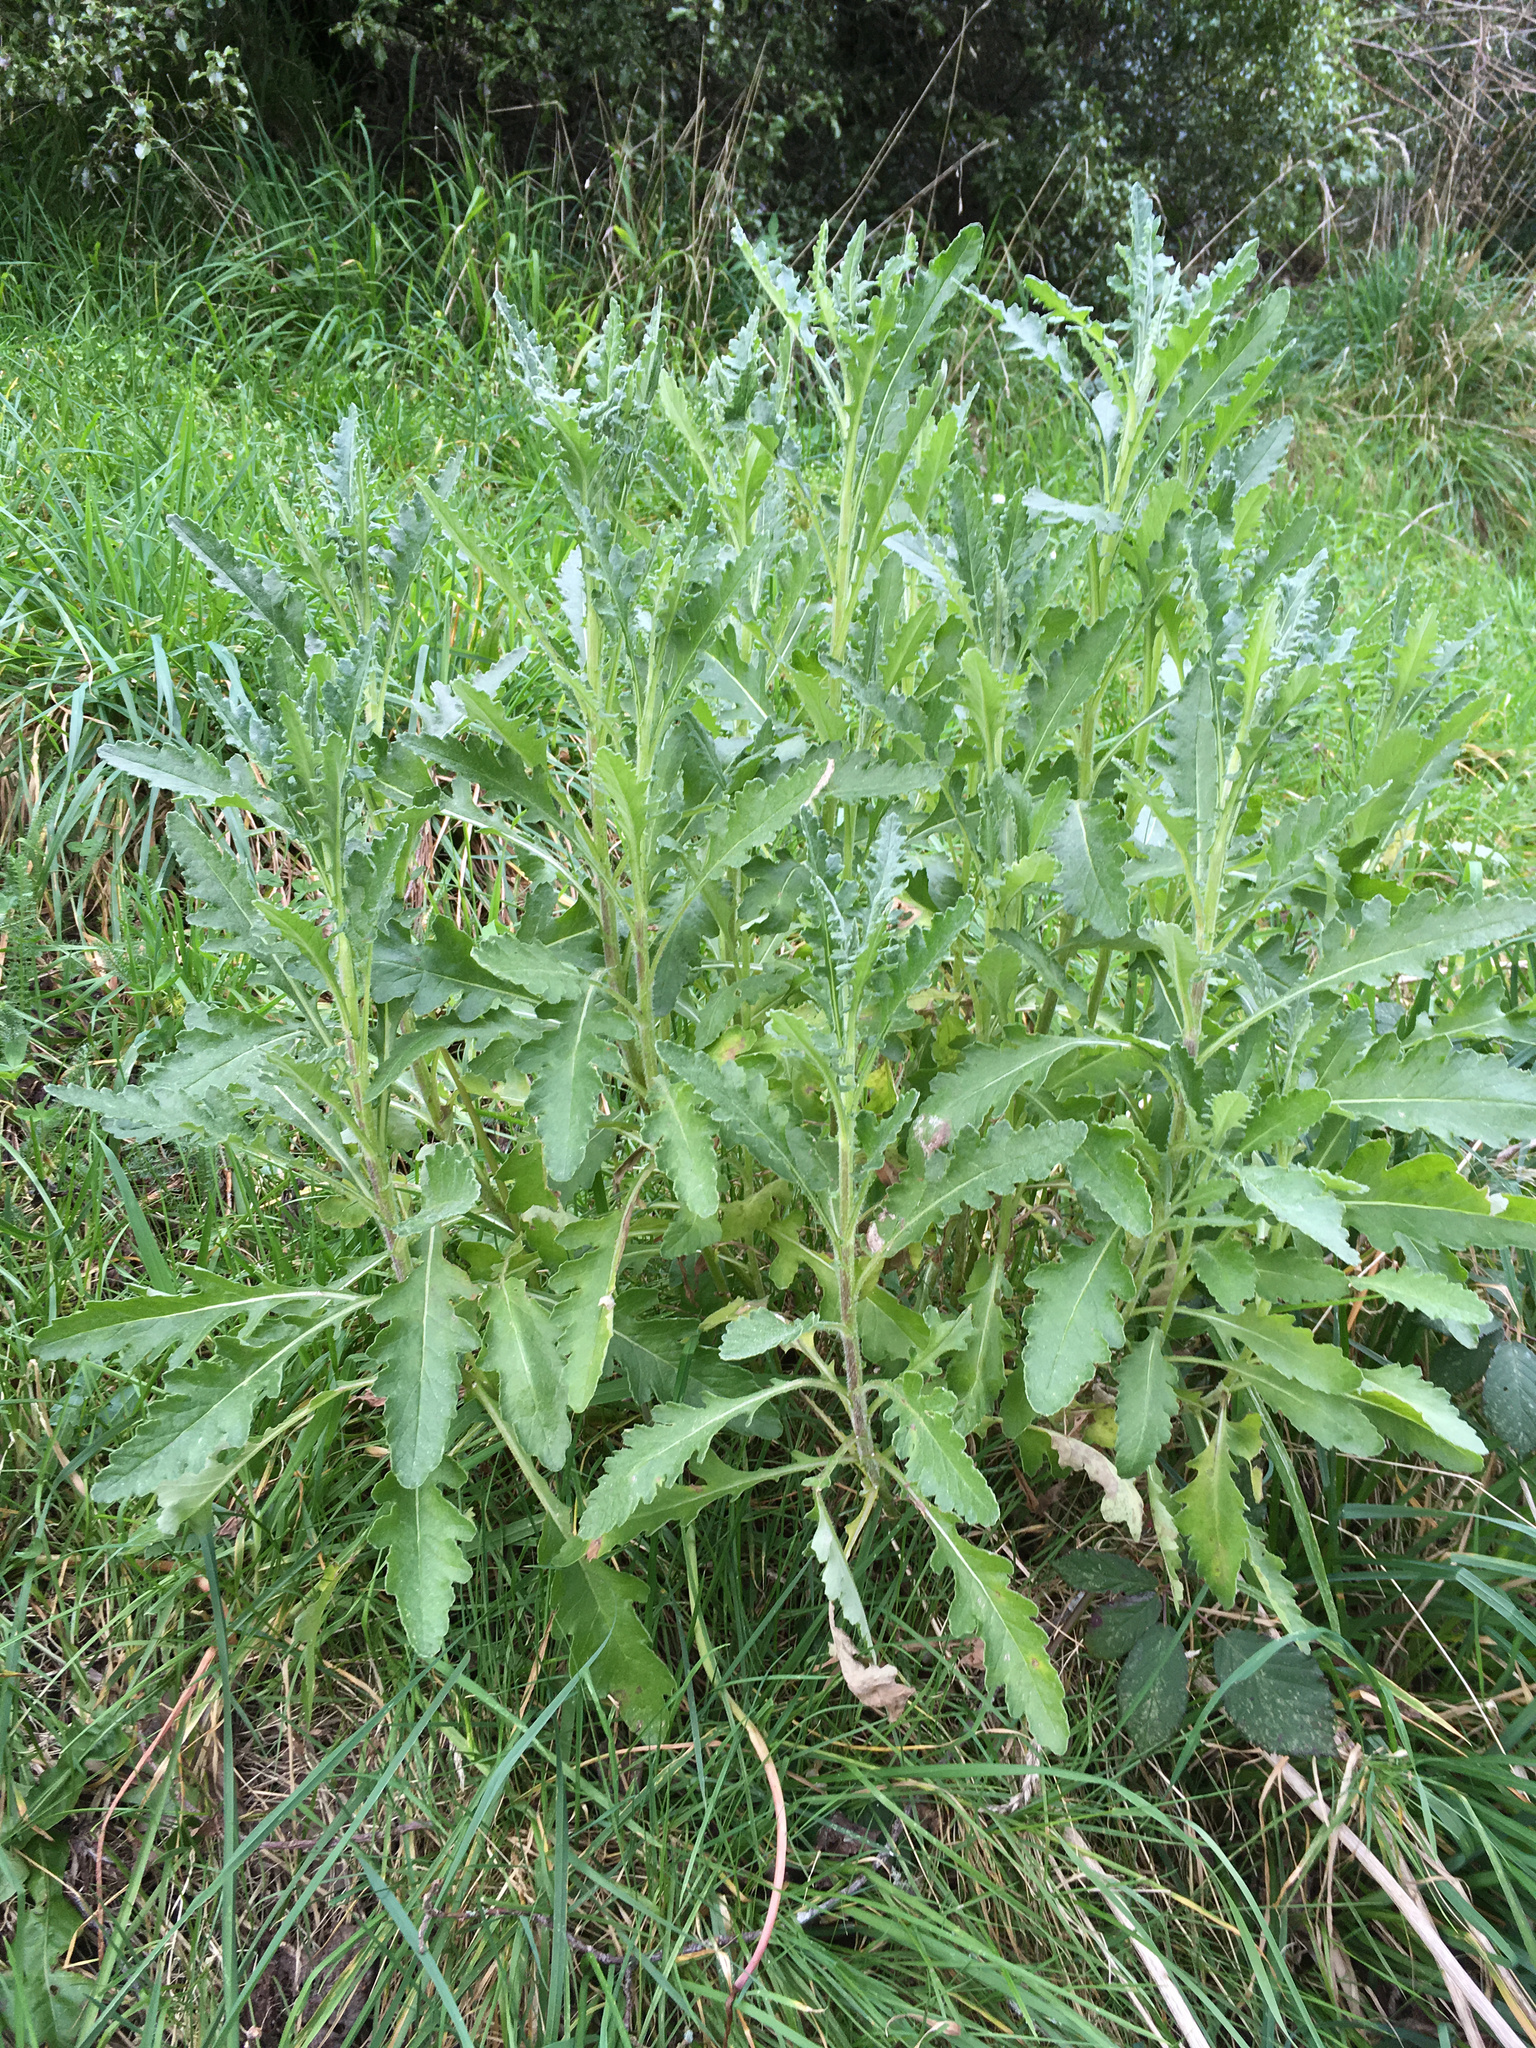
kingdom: Plantae
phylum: Tracheophyta
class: Magnoliopsida
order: Asterales
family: Asteraceae
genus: Senecio
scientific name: Senecio glomeratus
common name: Cutleaf burnweed
